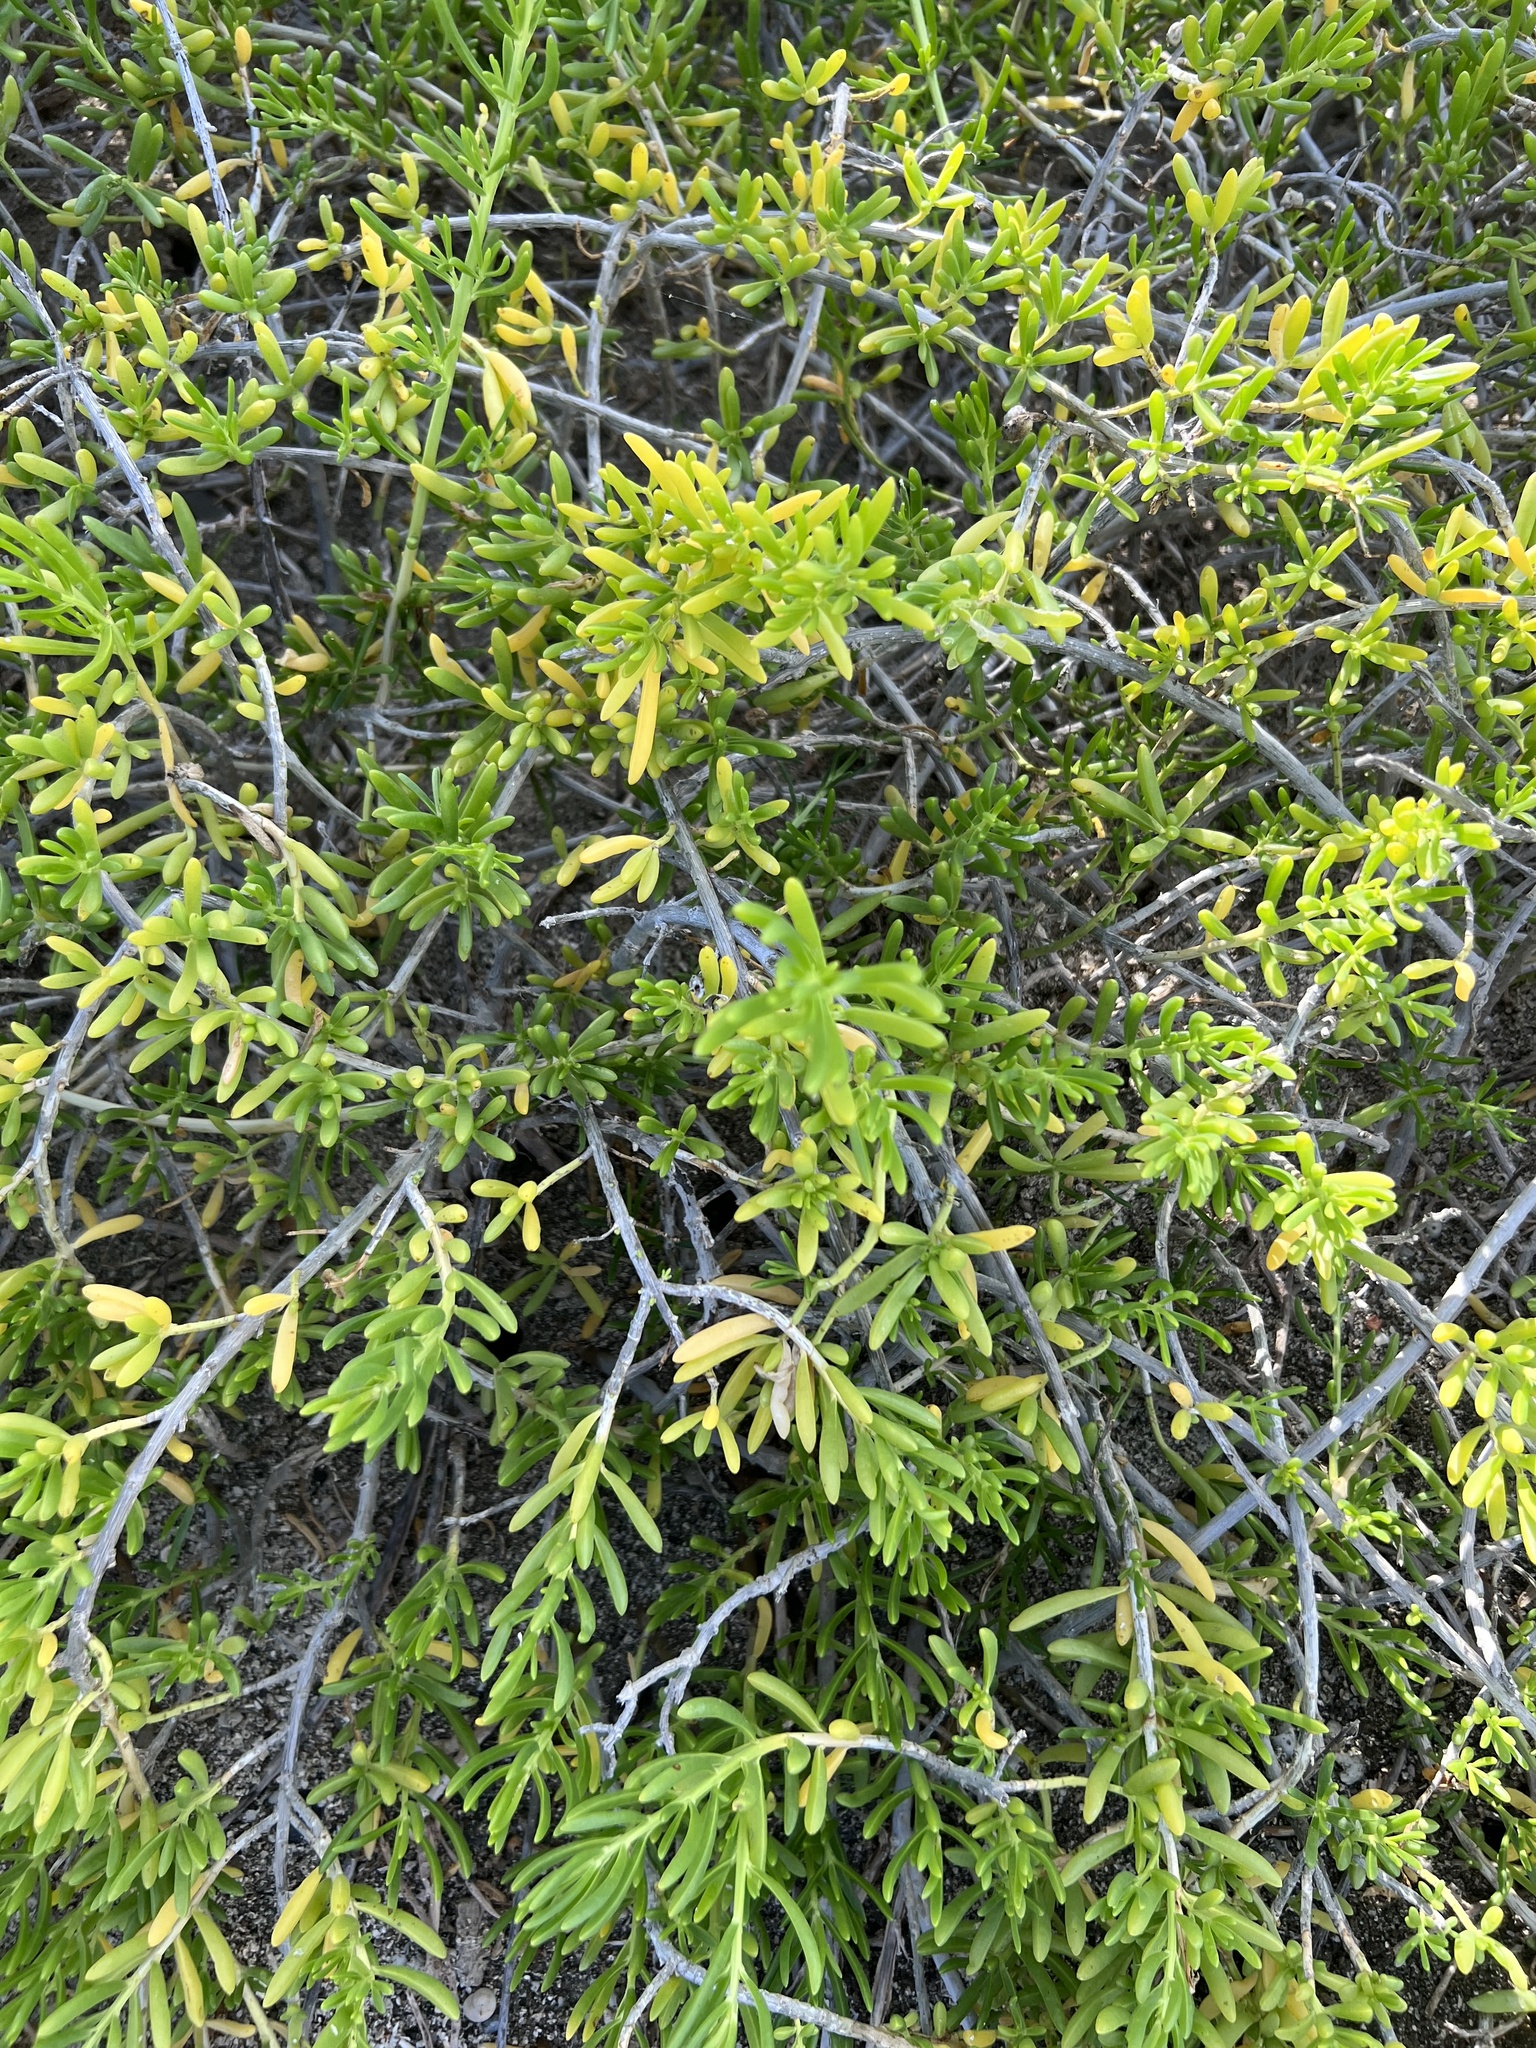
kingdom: Plantae
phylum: Tracheophyta
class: Magnoliopsida
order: Brassicales
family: Bataceae
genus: Batis
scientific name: Batis maritima
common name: Turtleweed
